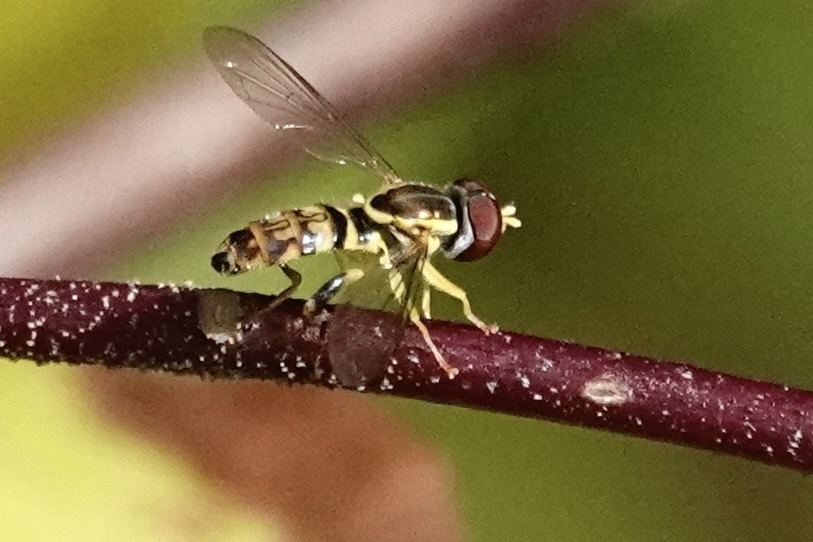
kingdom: Animalia
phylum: Arthropoda
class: Insecta
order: Diptera
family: Syrphidae
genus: Toxomerus
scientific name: Toxomerus geminatus
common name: Eastern calligrapher
